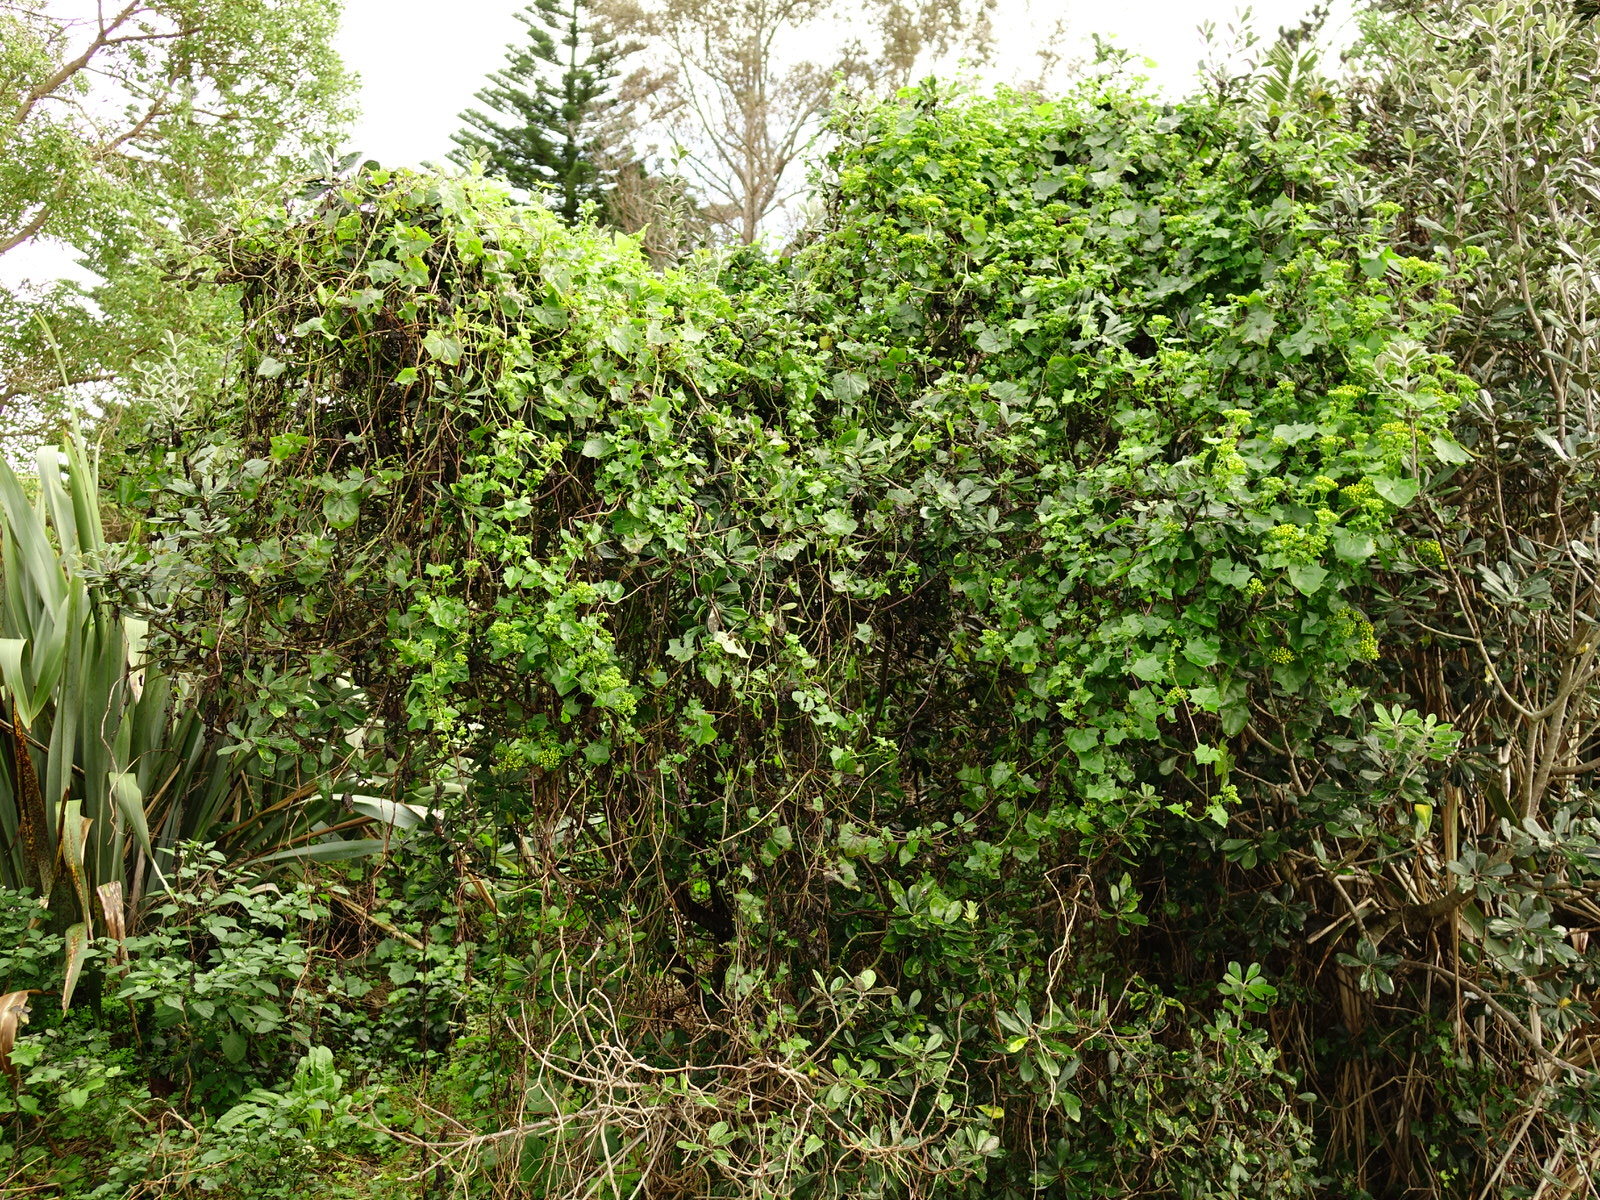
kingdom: Plantae
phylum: Tracheophyta
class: Magnoliopsida
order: Asterales
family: Asteraceae
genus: Delairea
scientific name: Delairea odorata
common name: Cape-ivy
